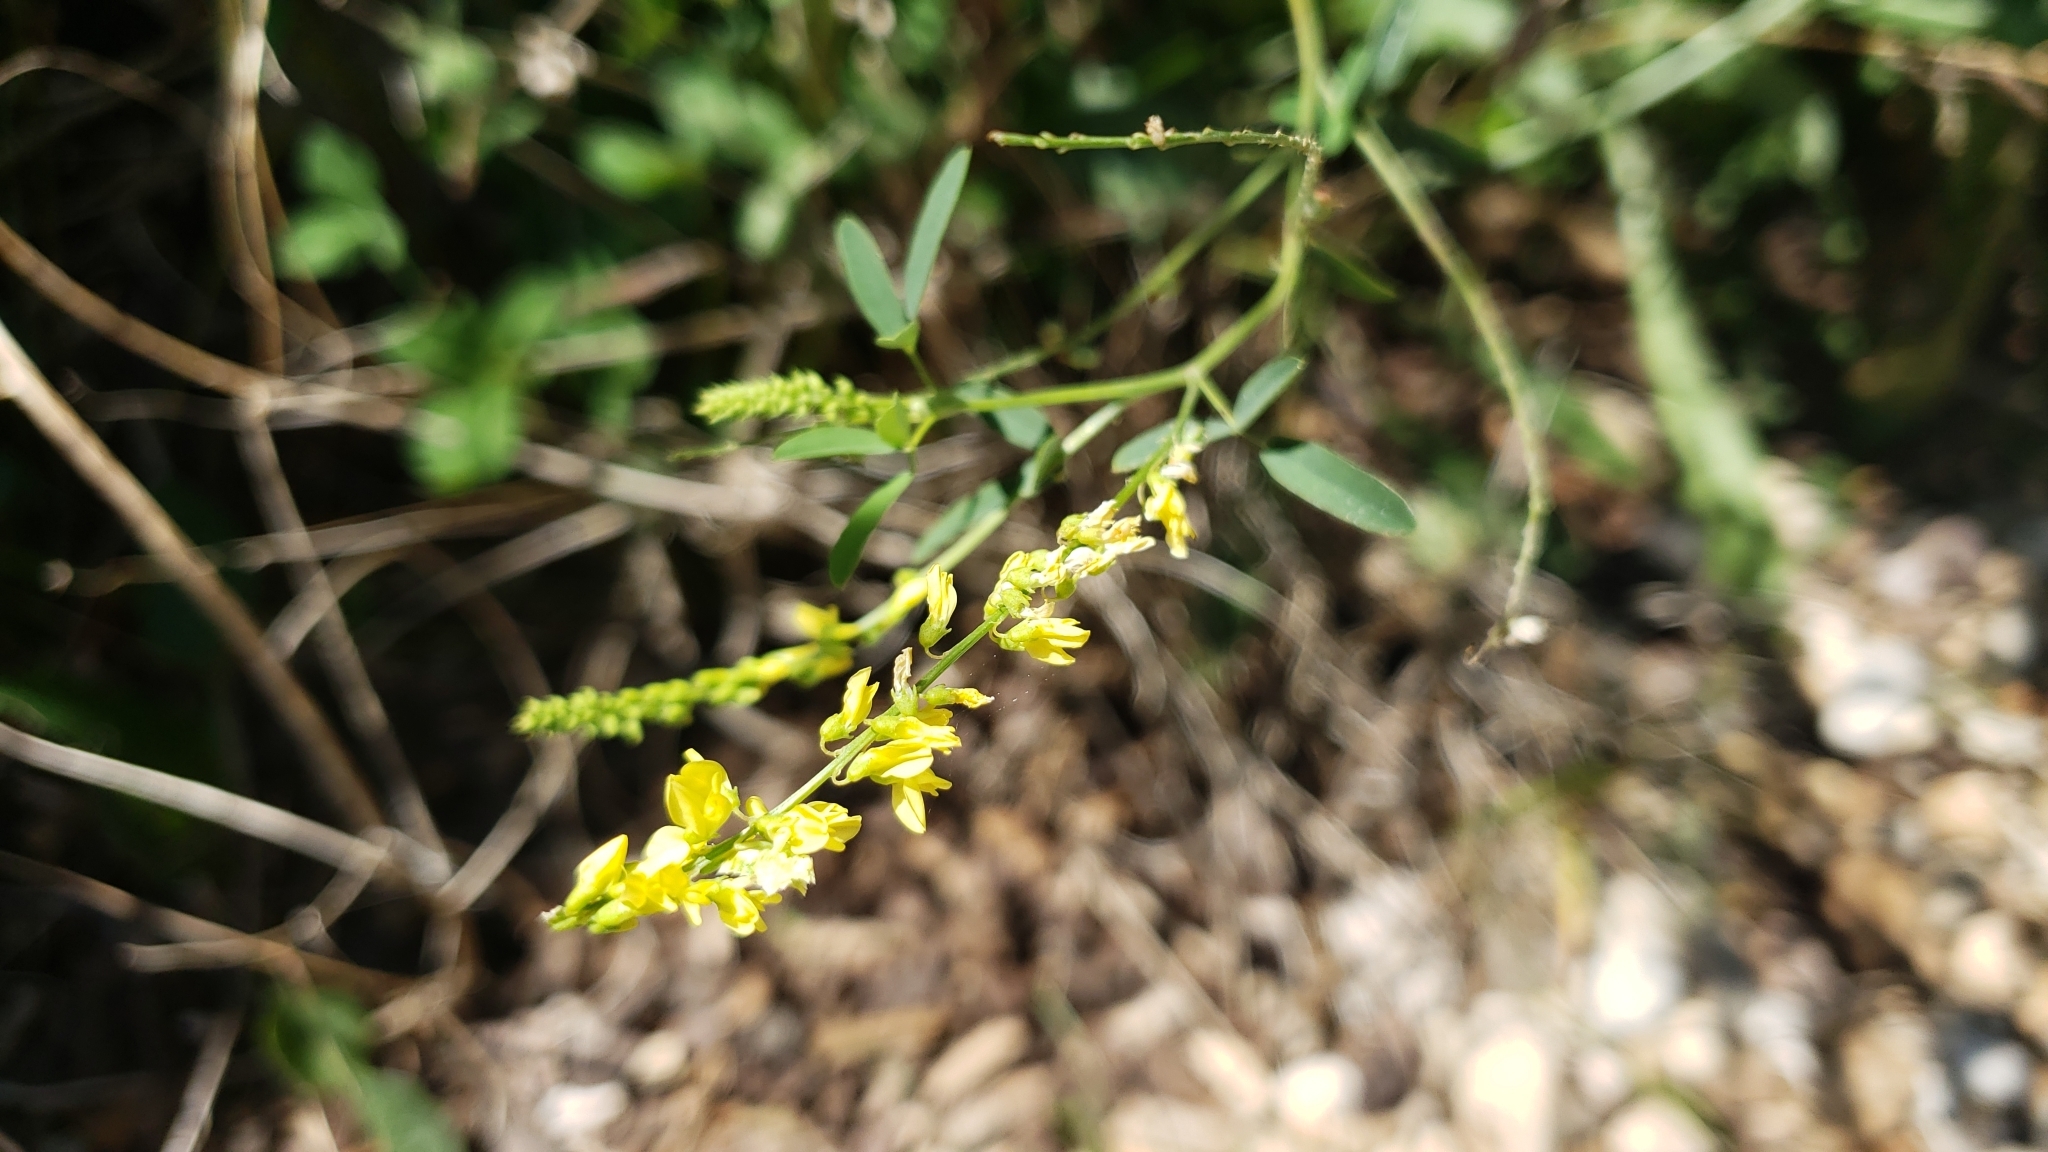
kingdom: Plantae
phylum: Tracheophyta
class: Magnoliopsida
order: Fabales
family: Fabaceae
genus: Melilotus
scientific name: Melilotus officinalis
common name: Sweetclover
